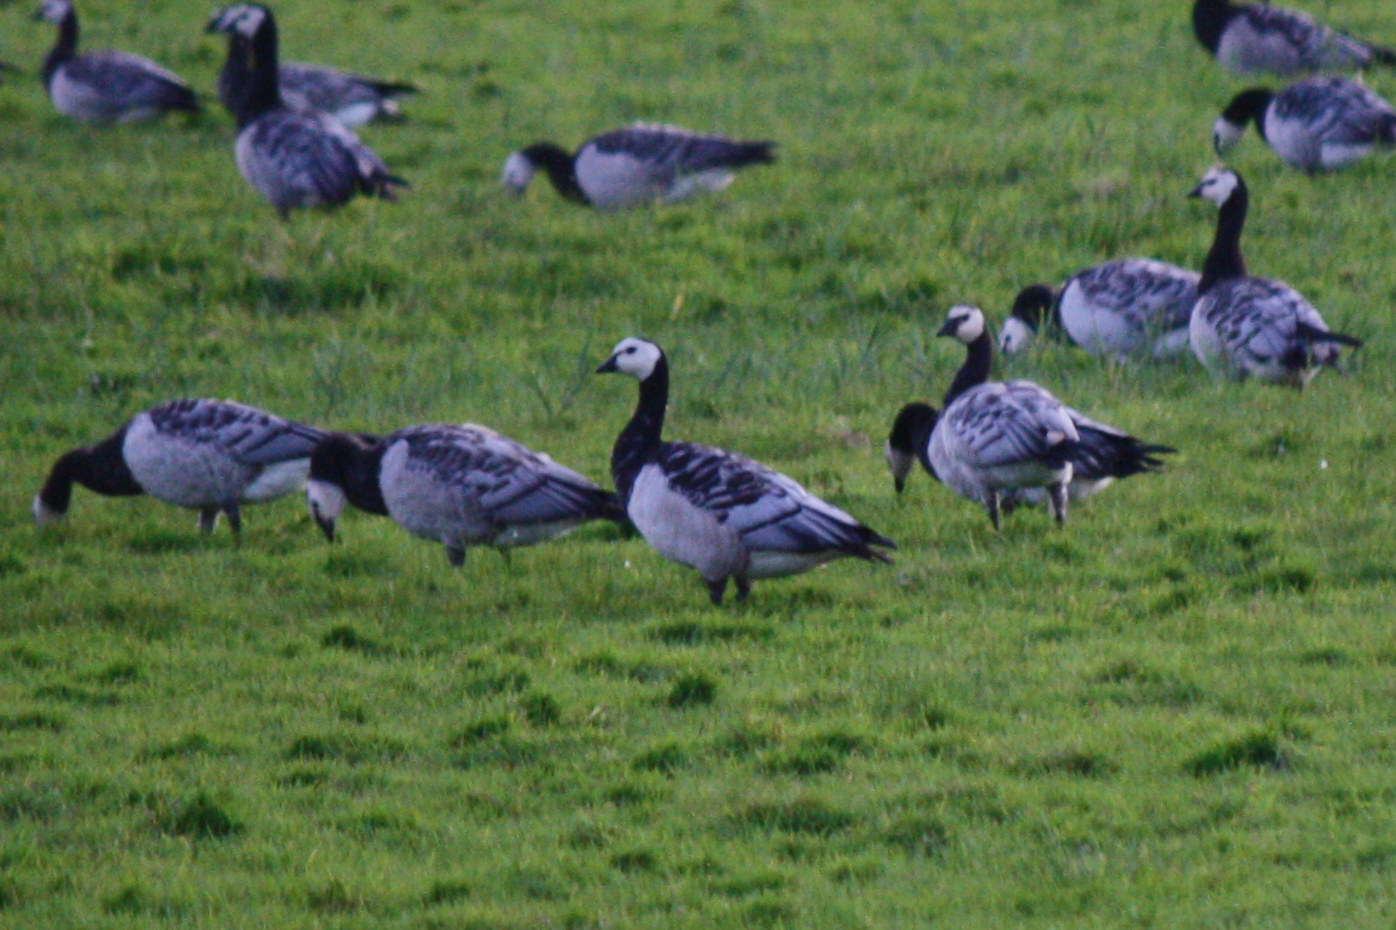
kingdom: Animalia
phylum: Chordata
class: Aves
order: Anseriformes
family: Anatidae
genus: Branta
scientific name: Branta leucopsis
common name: Barnacle goose
